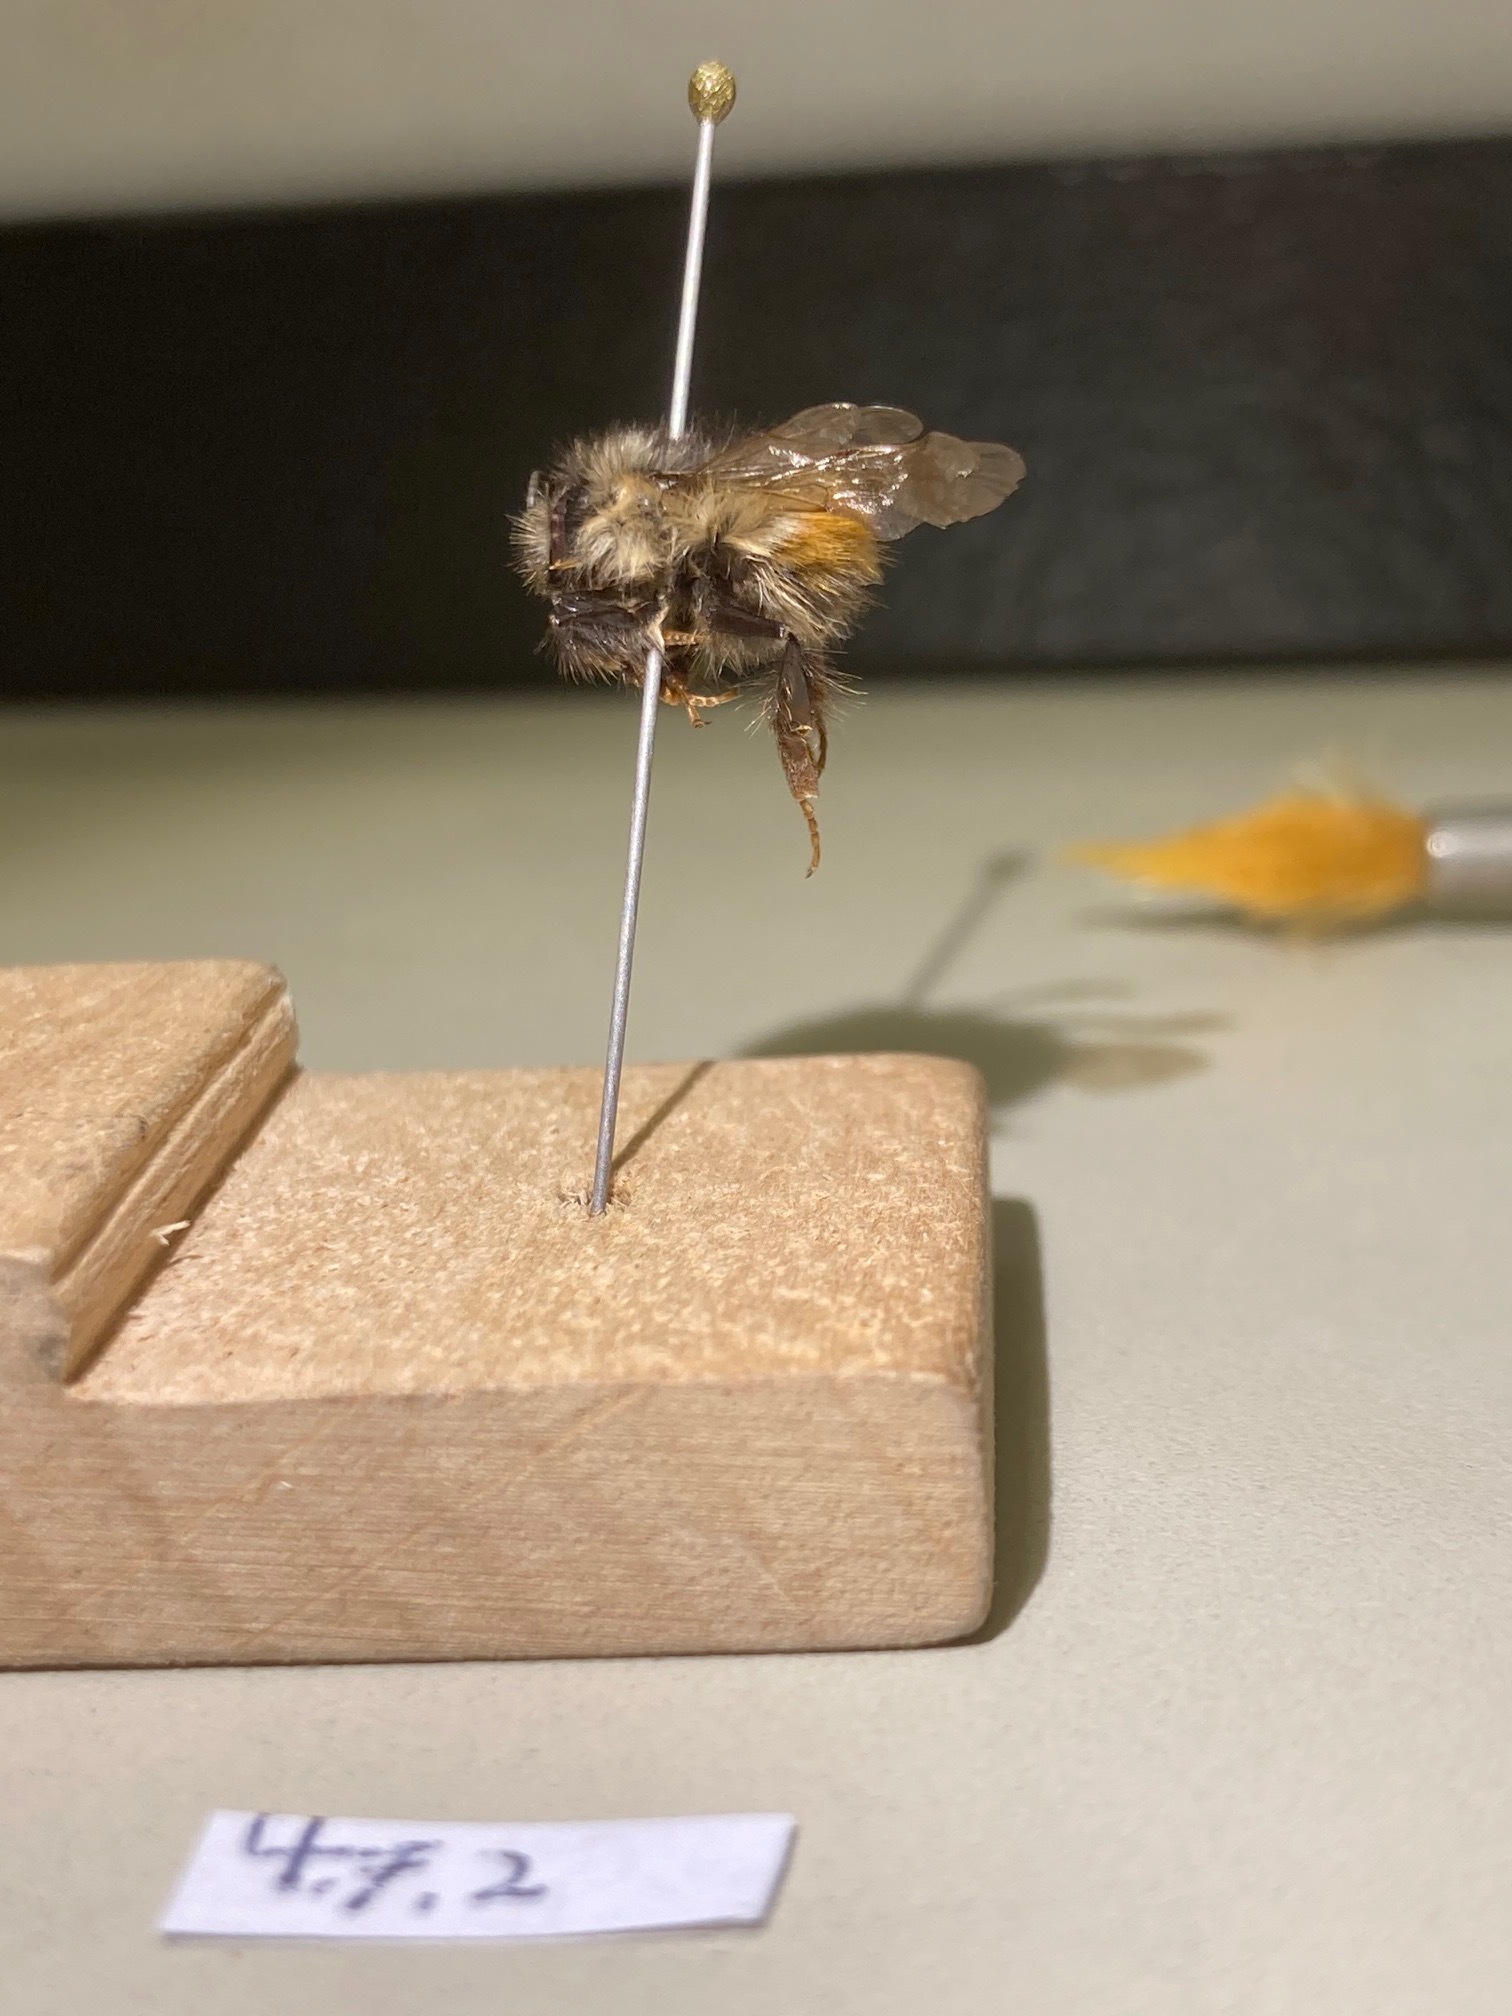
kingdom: Animalia
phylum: Arthropoda
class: Insecta
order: Hymenoptera
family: Apidae
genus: Bombus
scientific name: Bombus flavifrons
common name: Yellow head bumble bee
